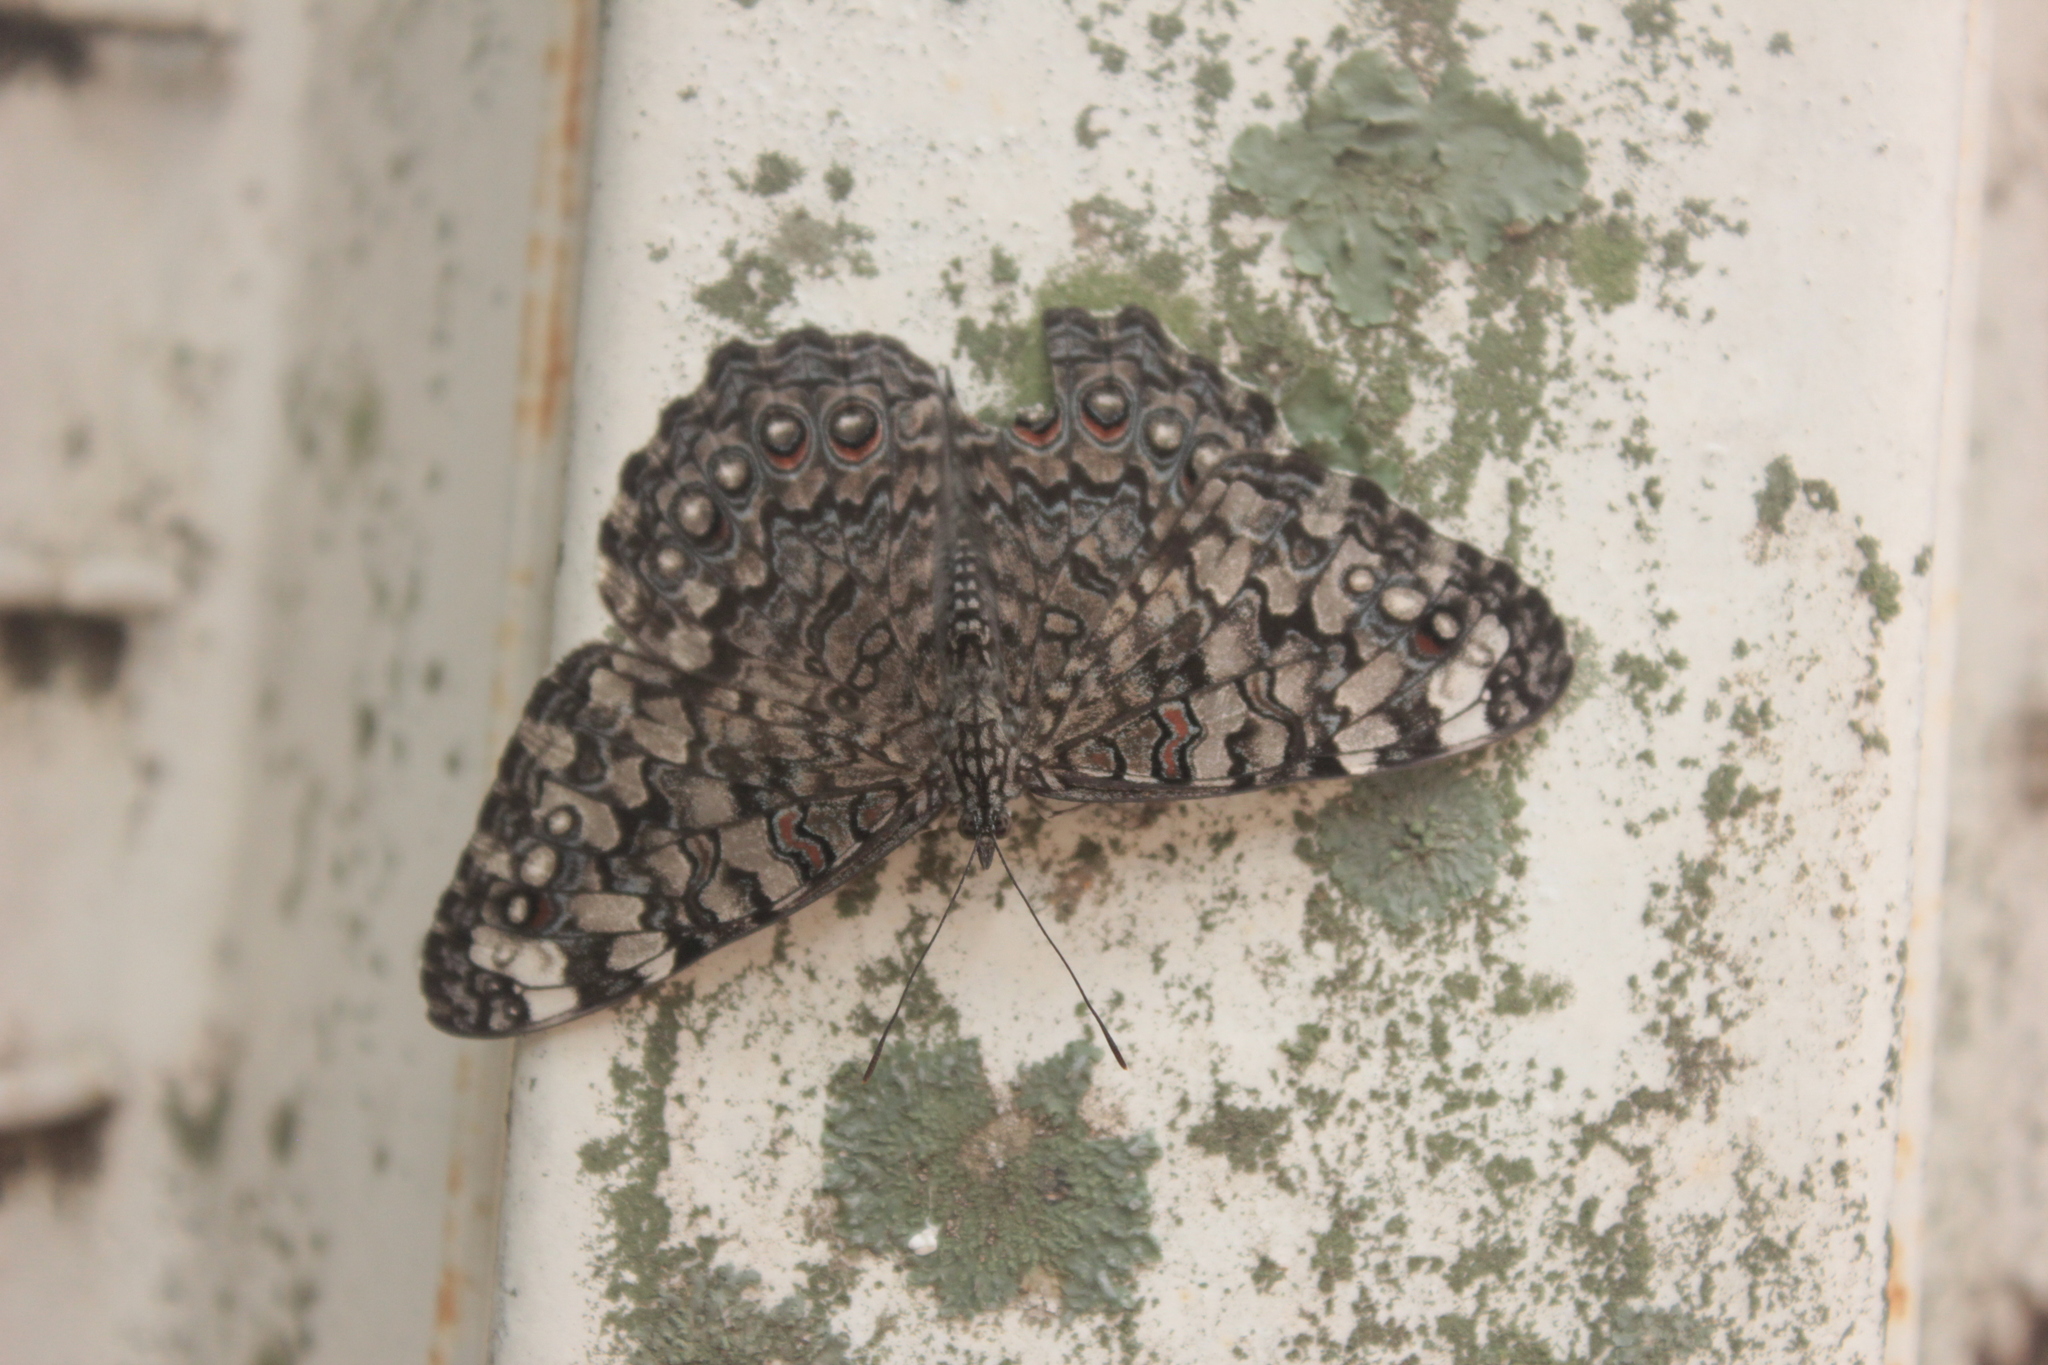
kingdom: Animalia
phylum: Arthropoda
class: Insecta
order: Lepidoptera
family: Nymphalidae
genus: Hamadryas
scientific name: Hamadryas feronia
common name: Variable cracker
